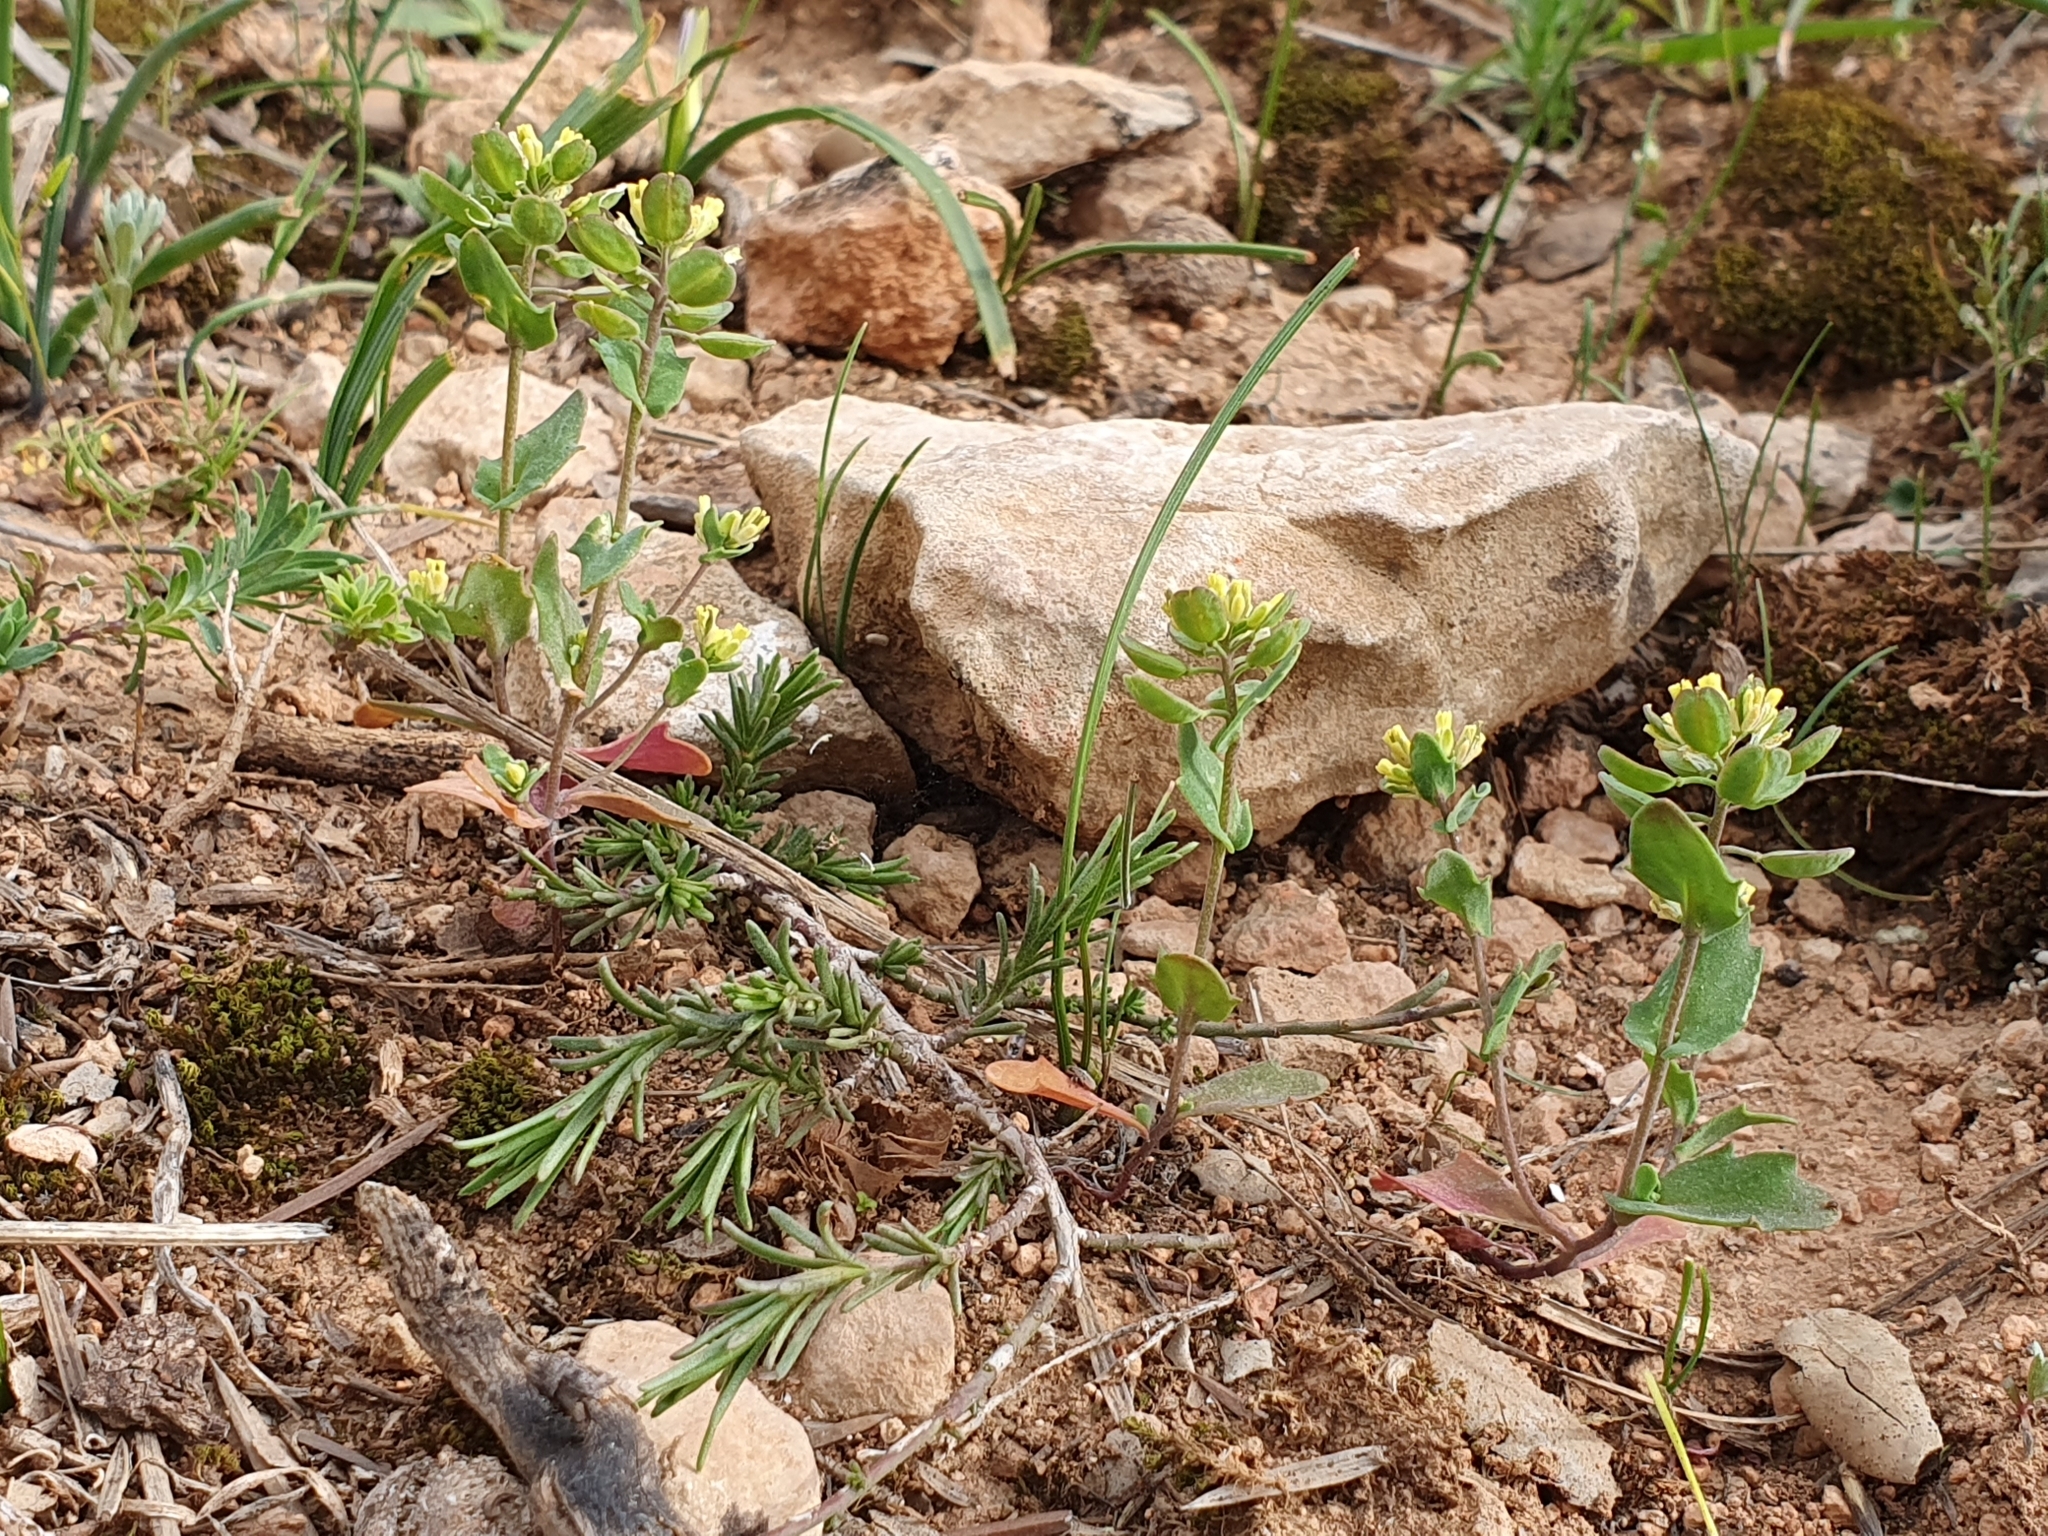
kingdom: Plantae
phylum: Tracheophyta
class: Magnoliopsida
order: Brassicales
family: Brassicaceae
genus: Bivonaea
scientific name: Bivonaea lutea
